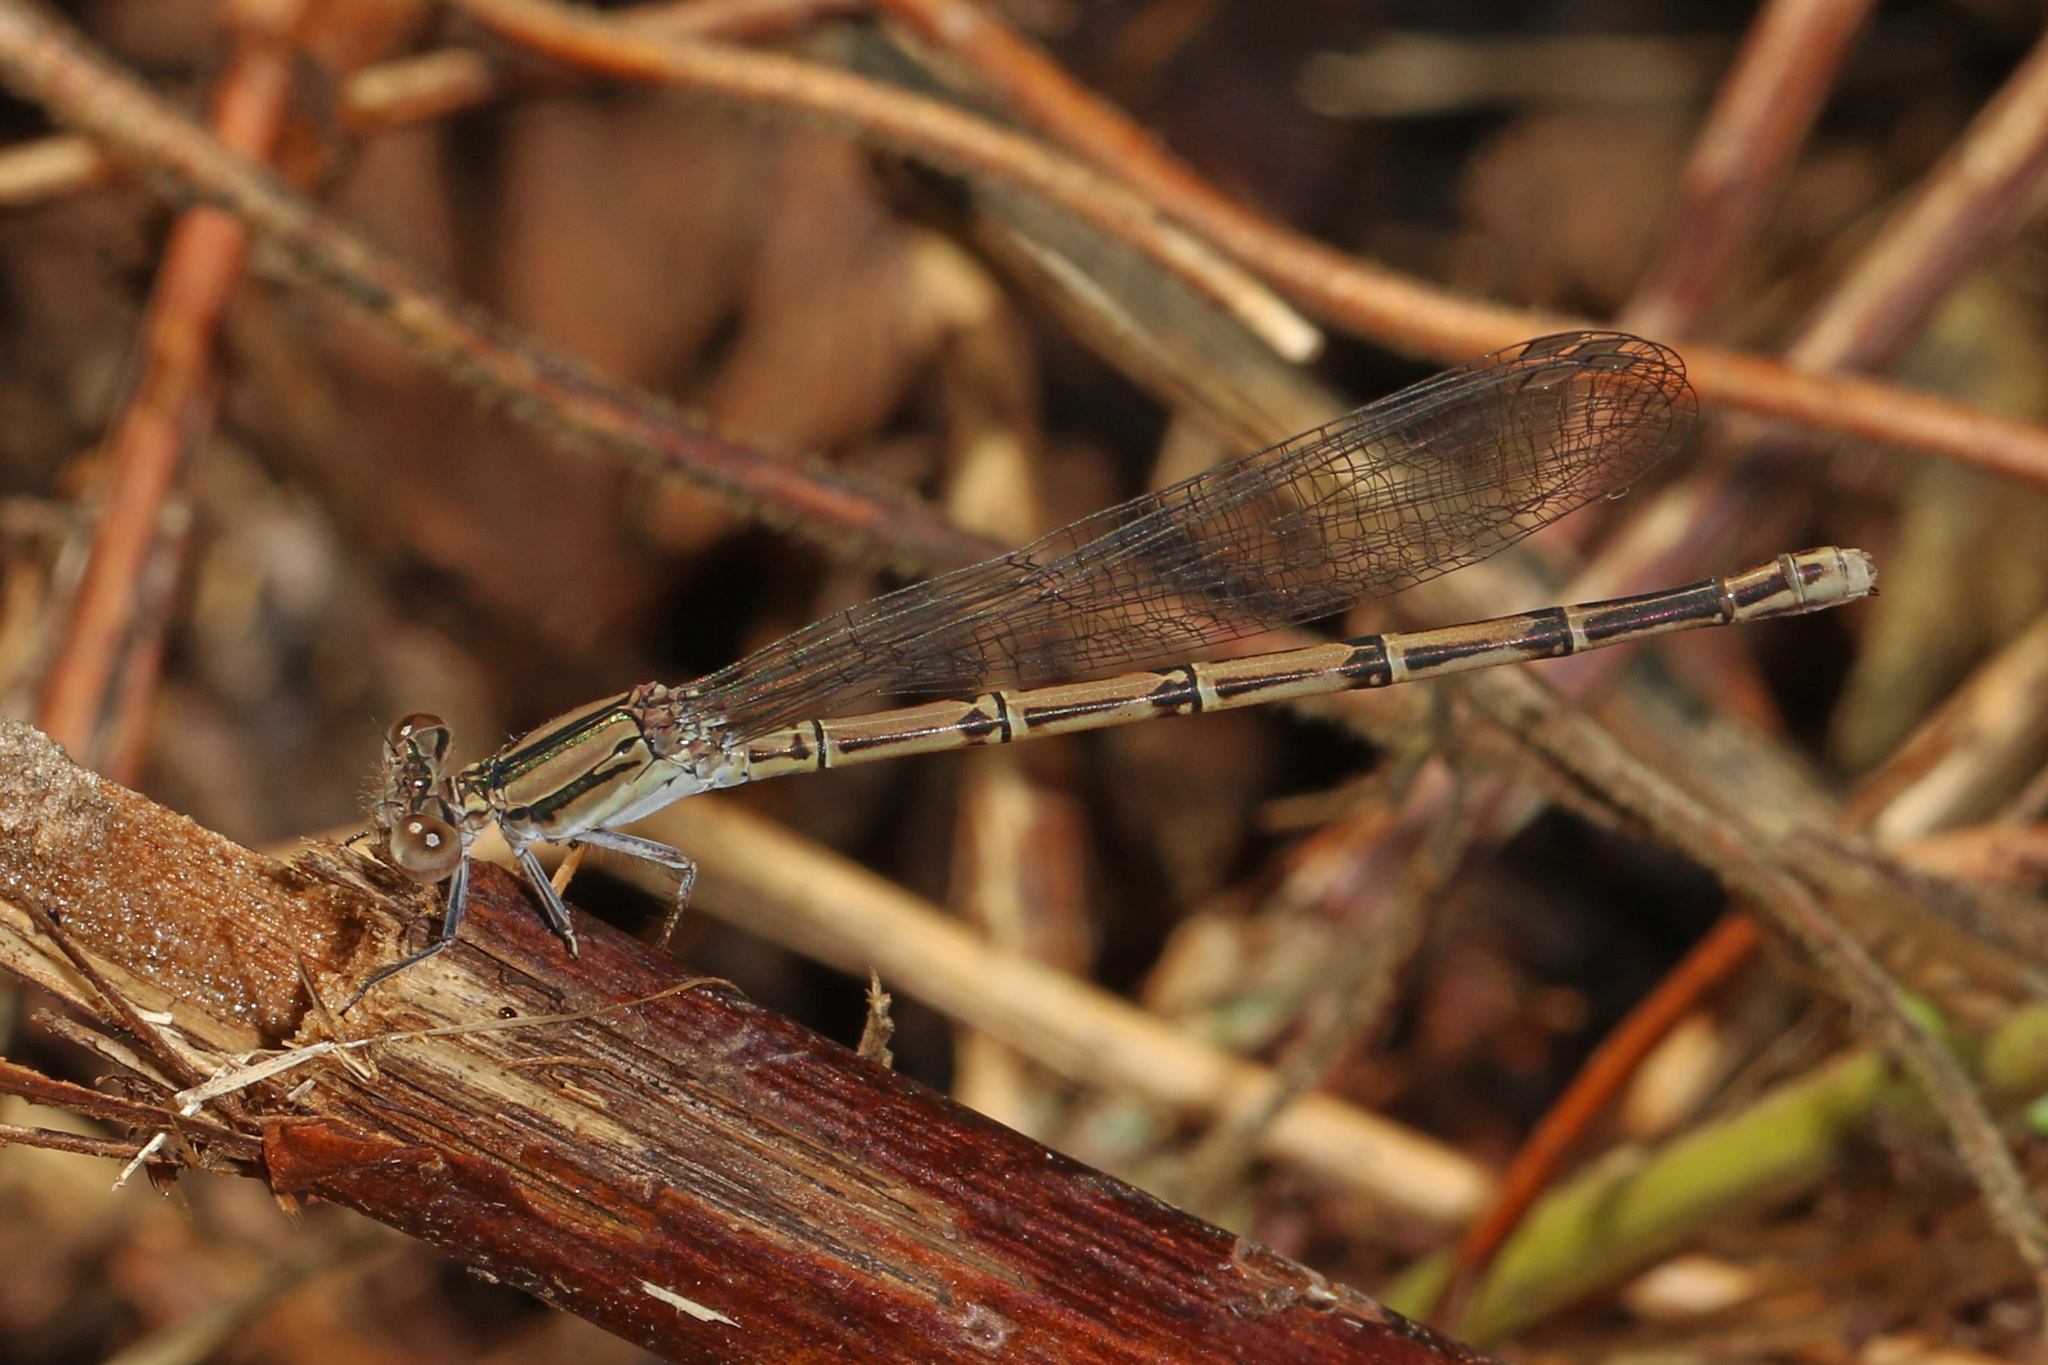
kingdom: Animalia
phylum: Arthropoda
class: Insecta
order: Odonata
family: Coenagrionidae
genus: Argia
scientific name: Argia fumipennis
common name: Variable dancer
